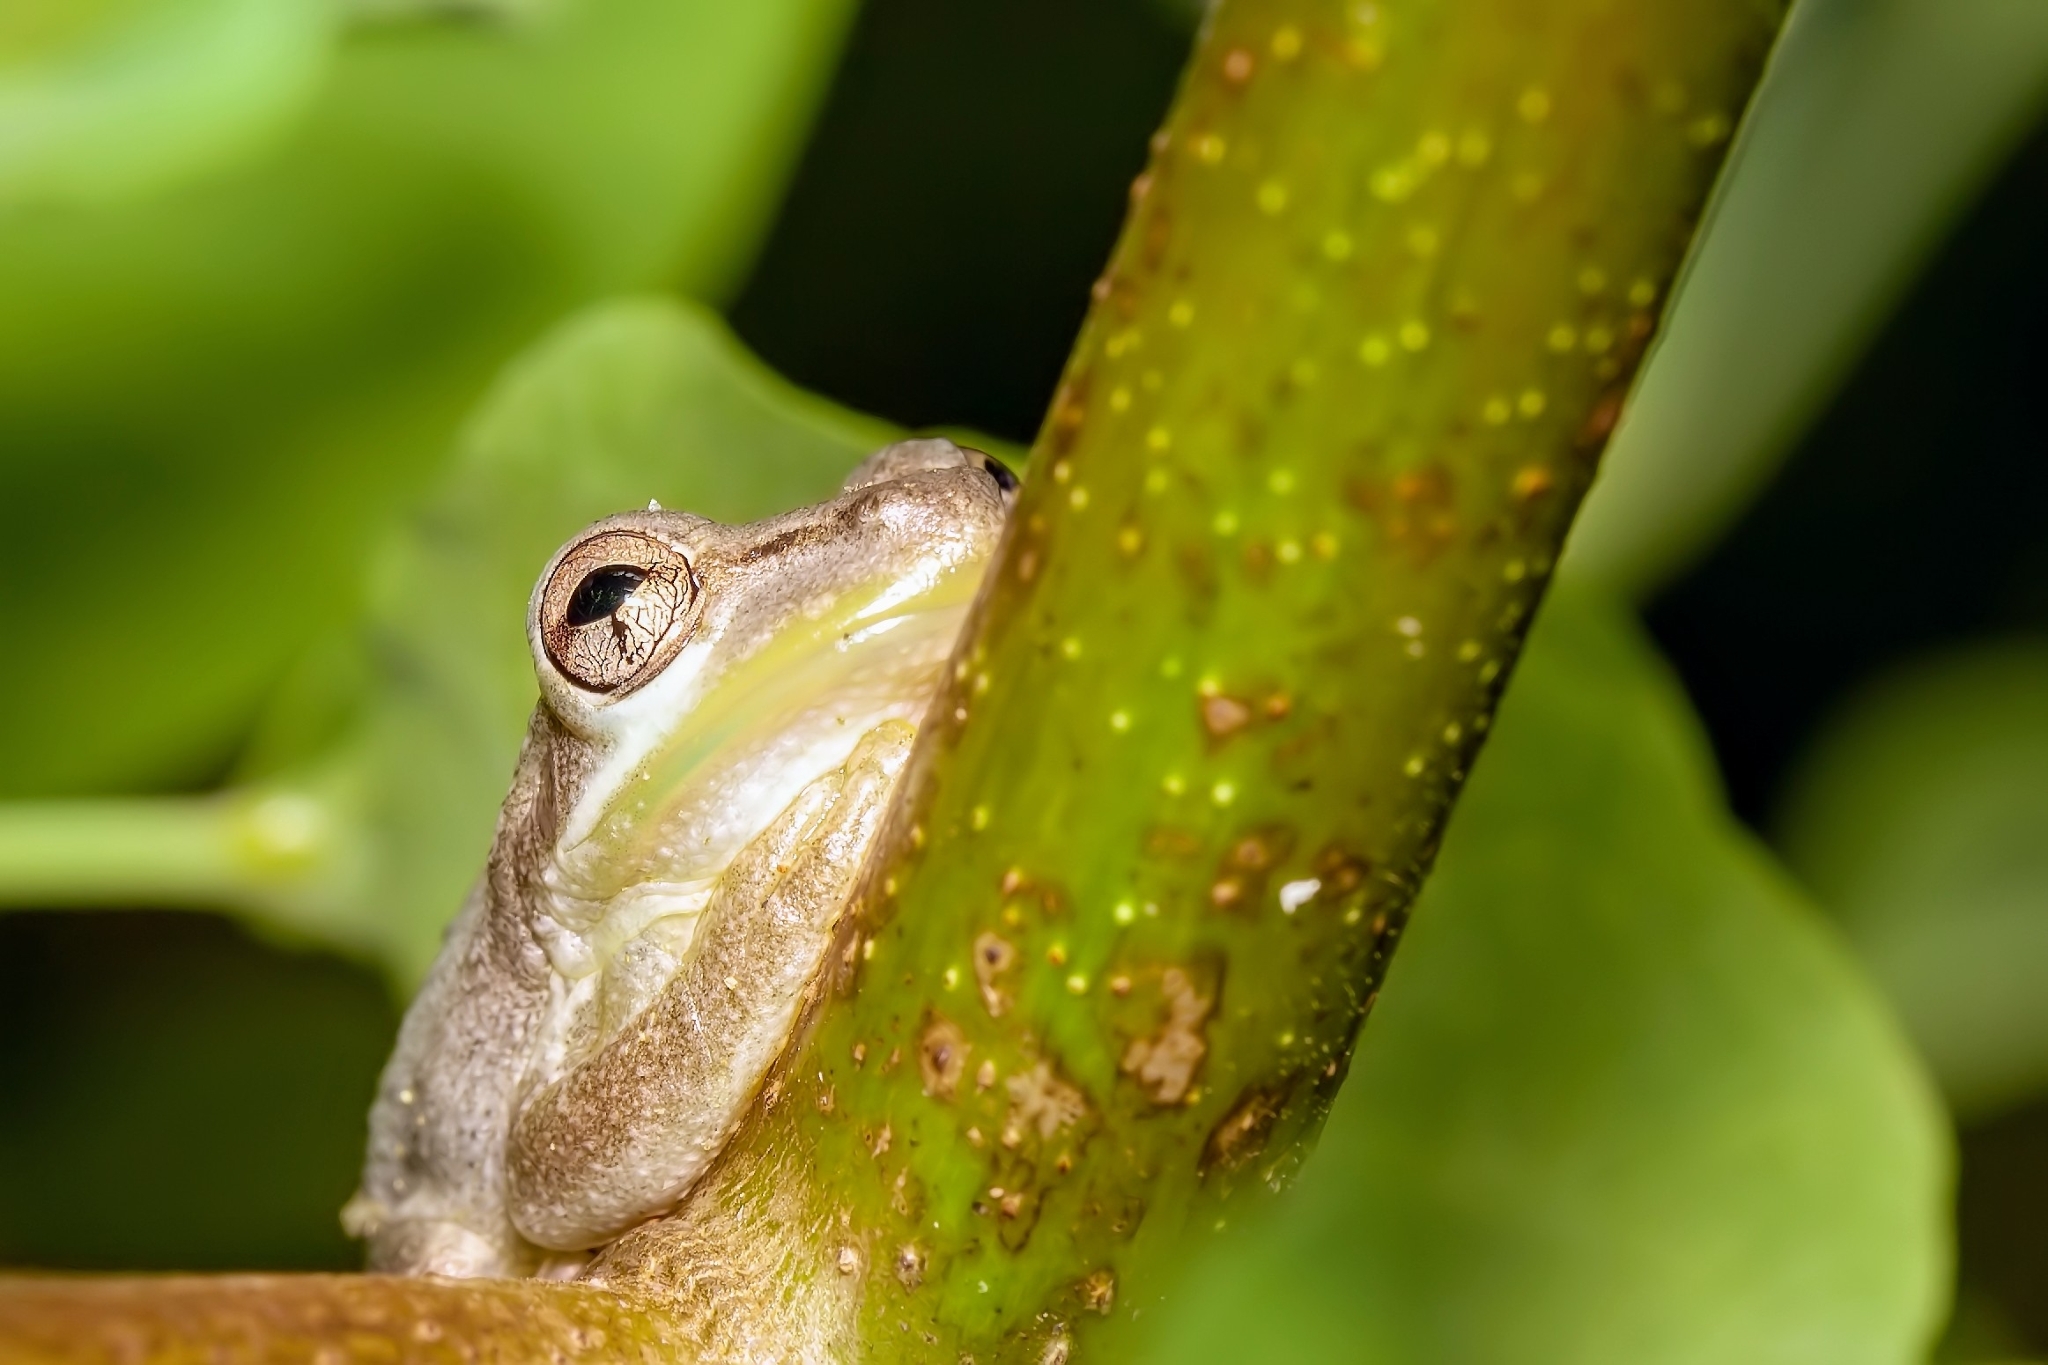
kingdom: Animalia
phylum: Chordata
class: Amphibia
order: Anura
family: Hylidae
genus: Osteopilus
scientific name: Osteopilus septentrionalis
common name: Cuban treefrog
